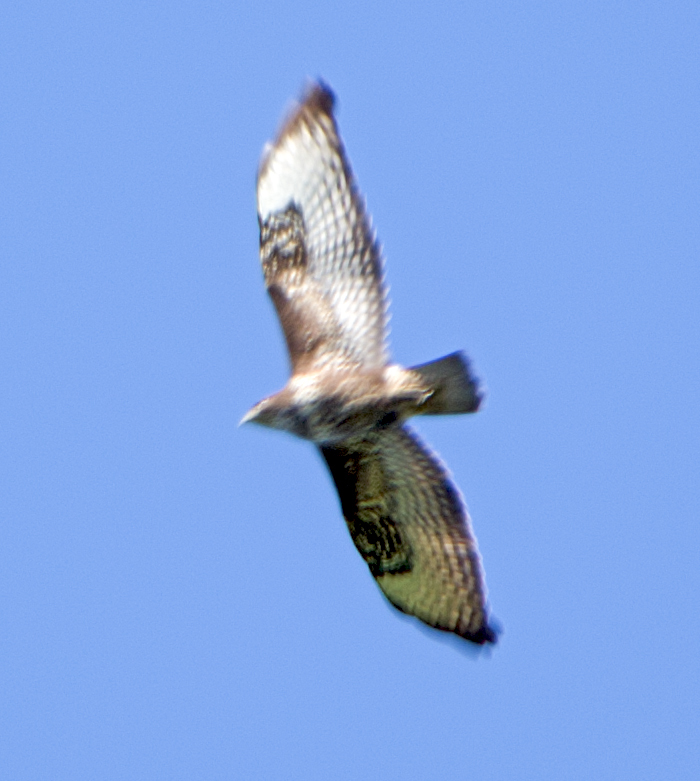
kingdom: Animalia
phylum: Chordata
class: Aves
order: Accipitriformes
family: Accipitridae
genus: Buteo
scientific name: Buteo buteo
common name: Common buzzard
